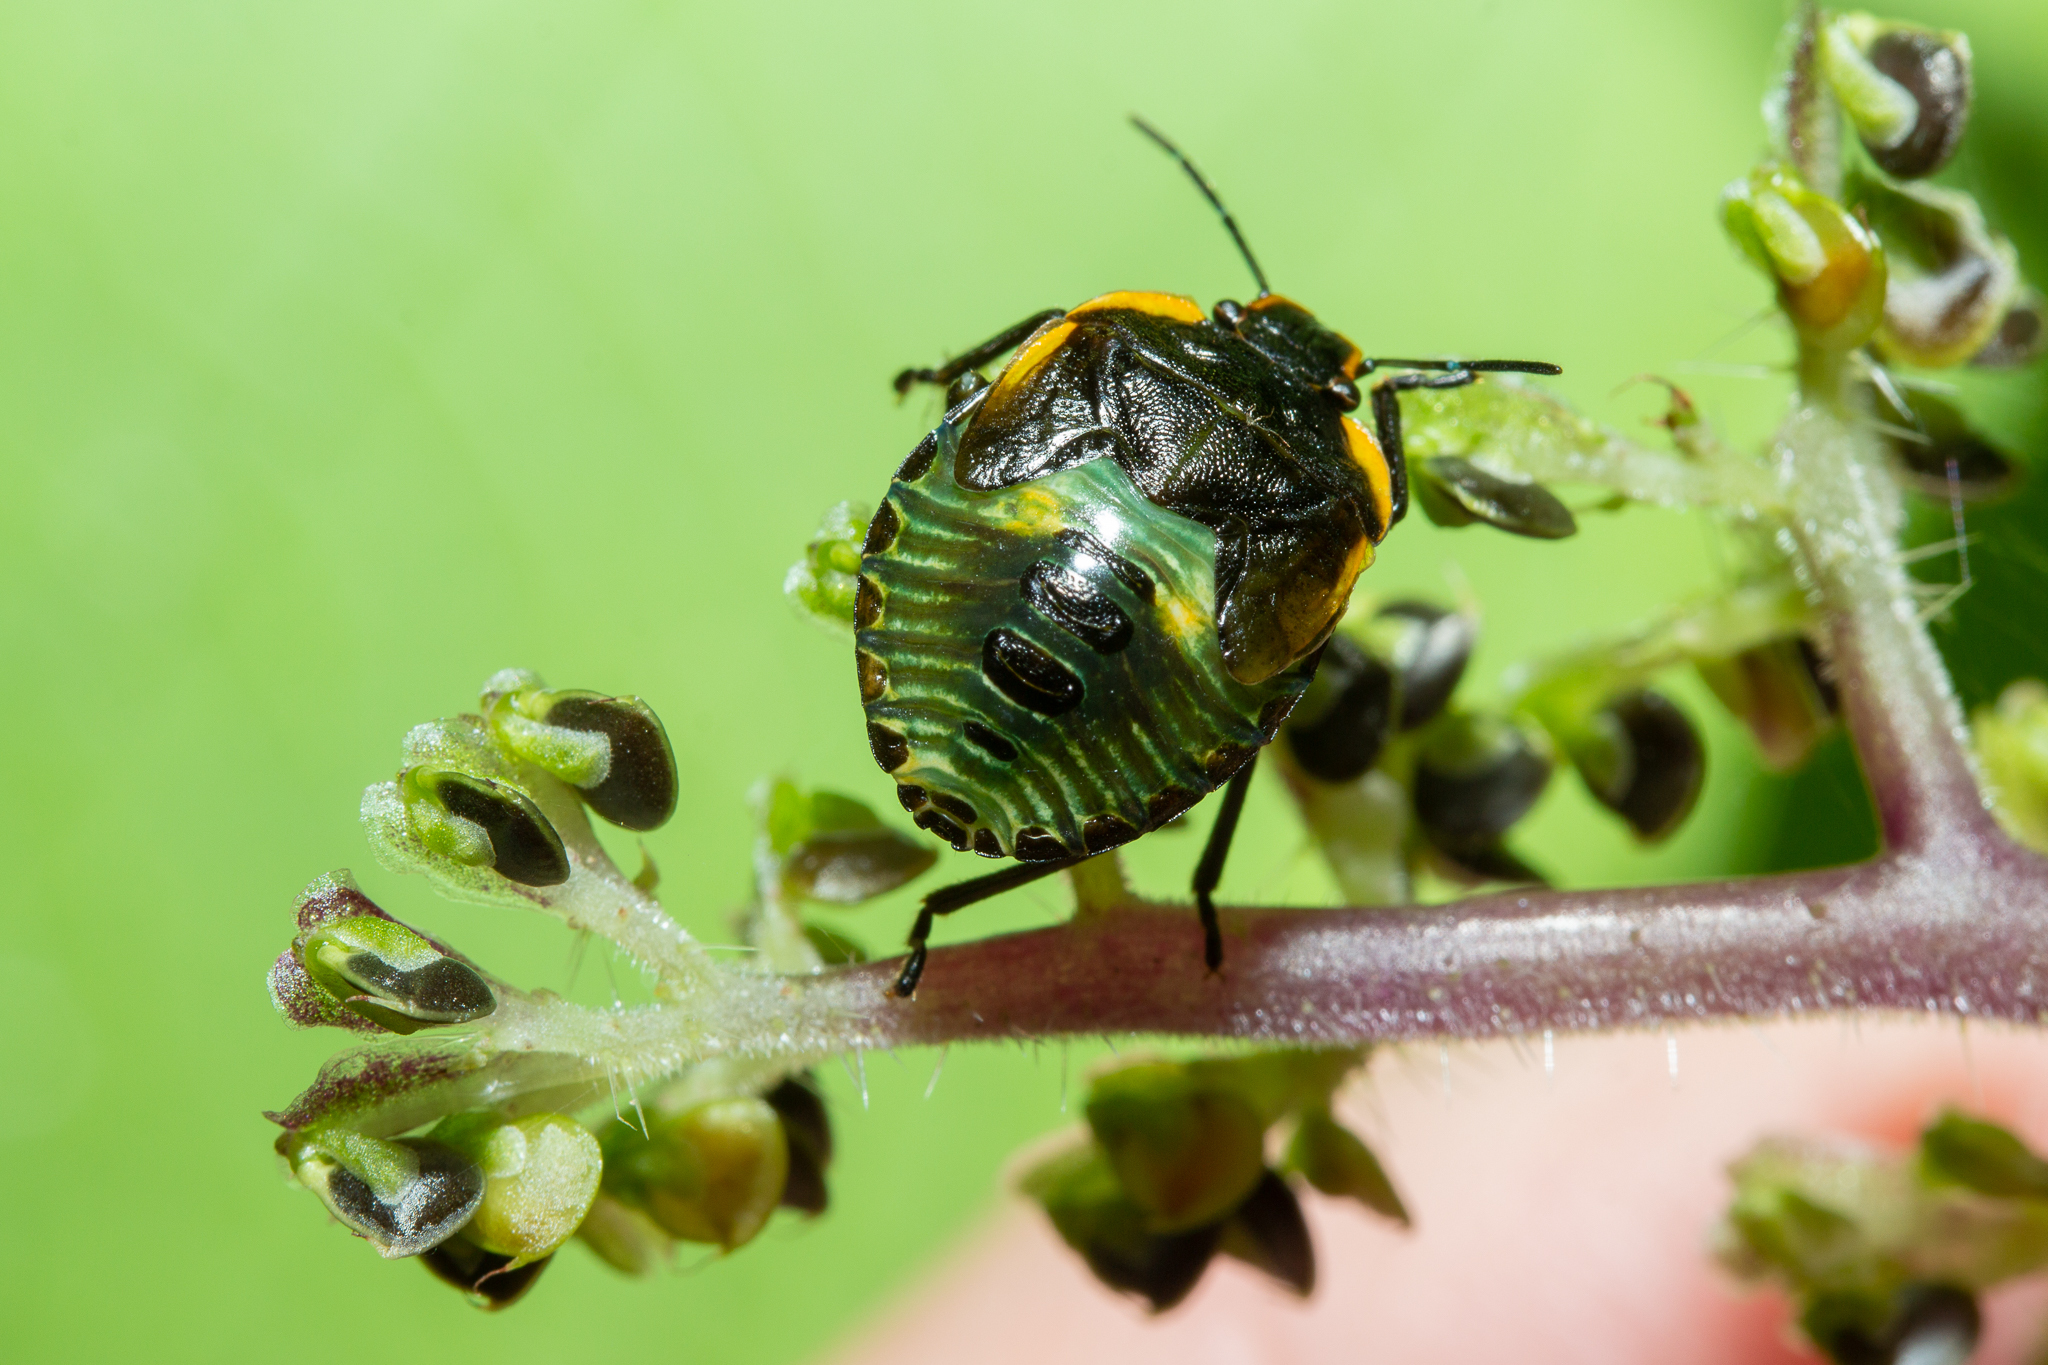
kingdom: Animalia
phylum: Arthropoda
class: Insecta
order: Hemiptera
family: Pentatomidae
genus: Chinavia
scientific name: Chinavia hilaris
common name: Green stink bug
